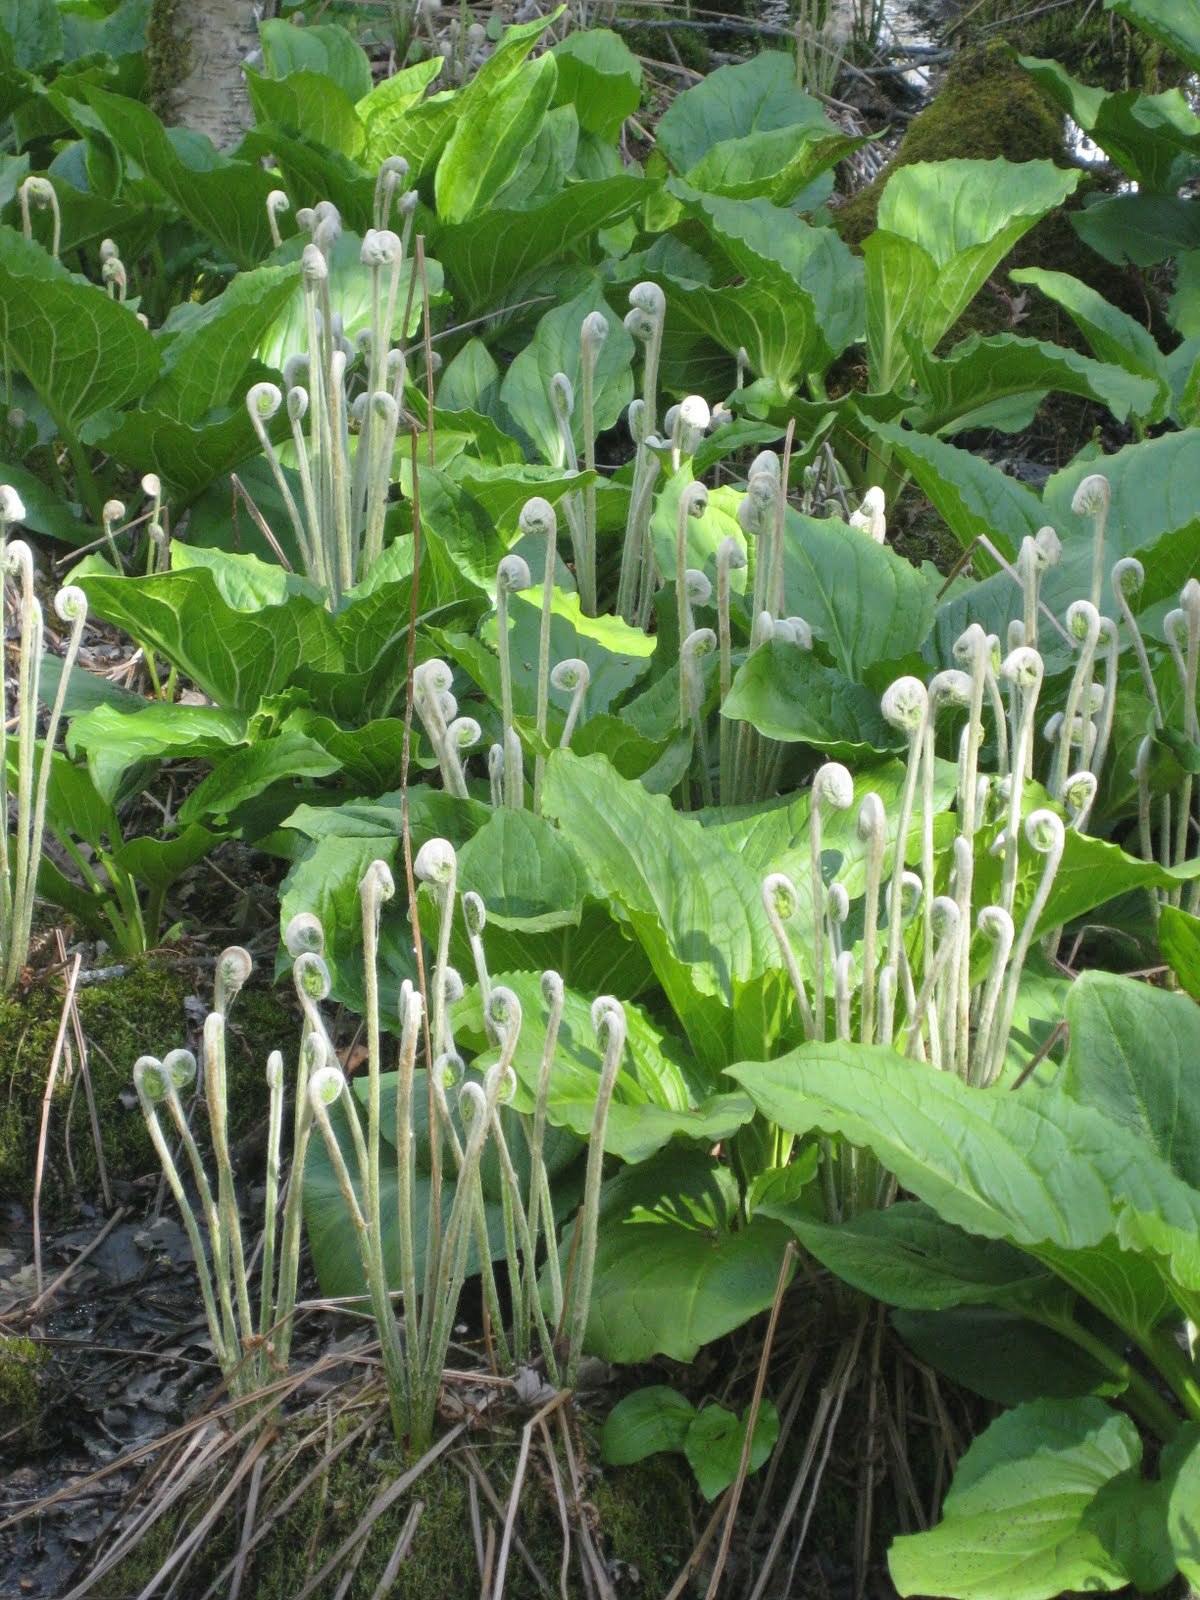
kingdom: Plantae
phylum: Tracheophyta
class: Liliopsida
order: Alismatales
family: Araceae
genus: Symplocarpus
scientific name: Symplocarpus foetidus
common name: Eastern skunk cabbage
